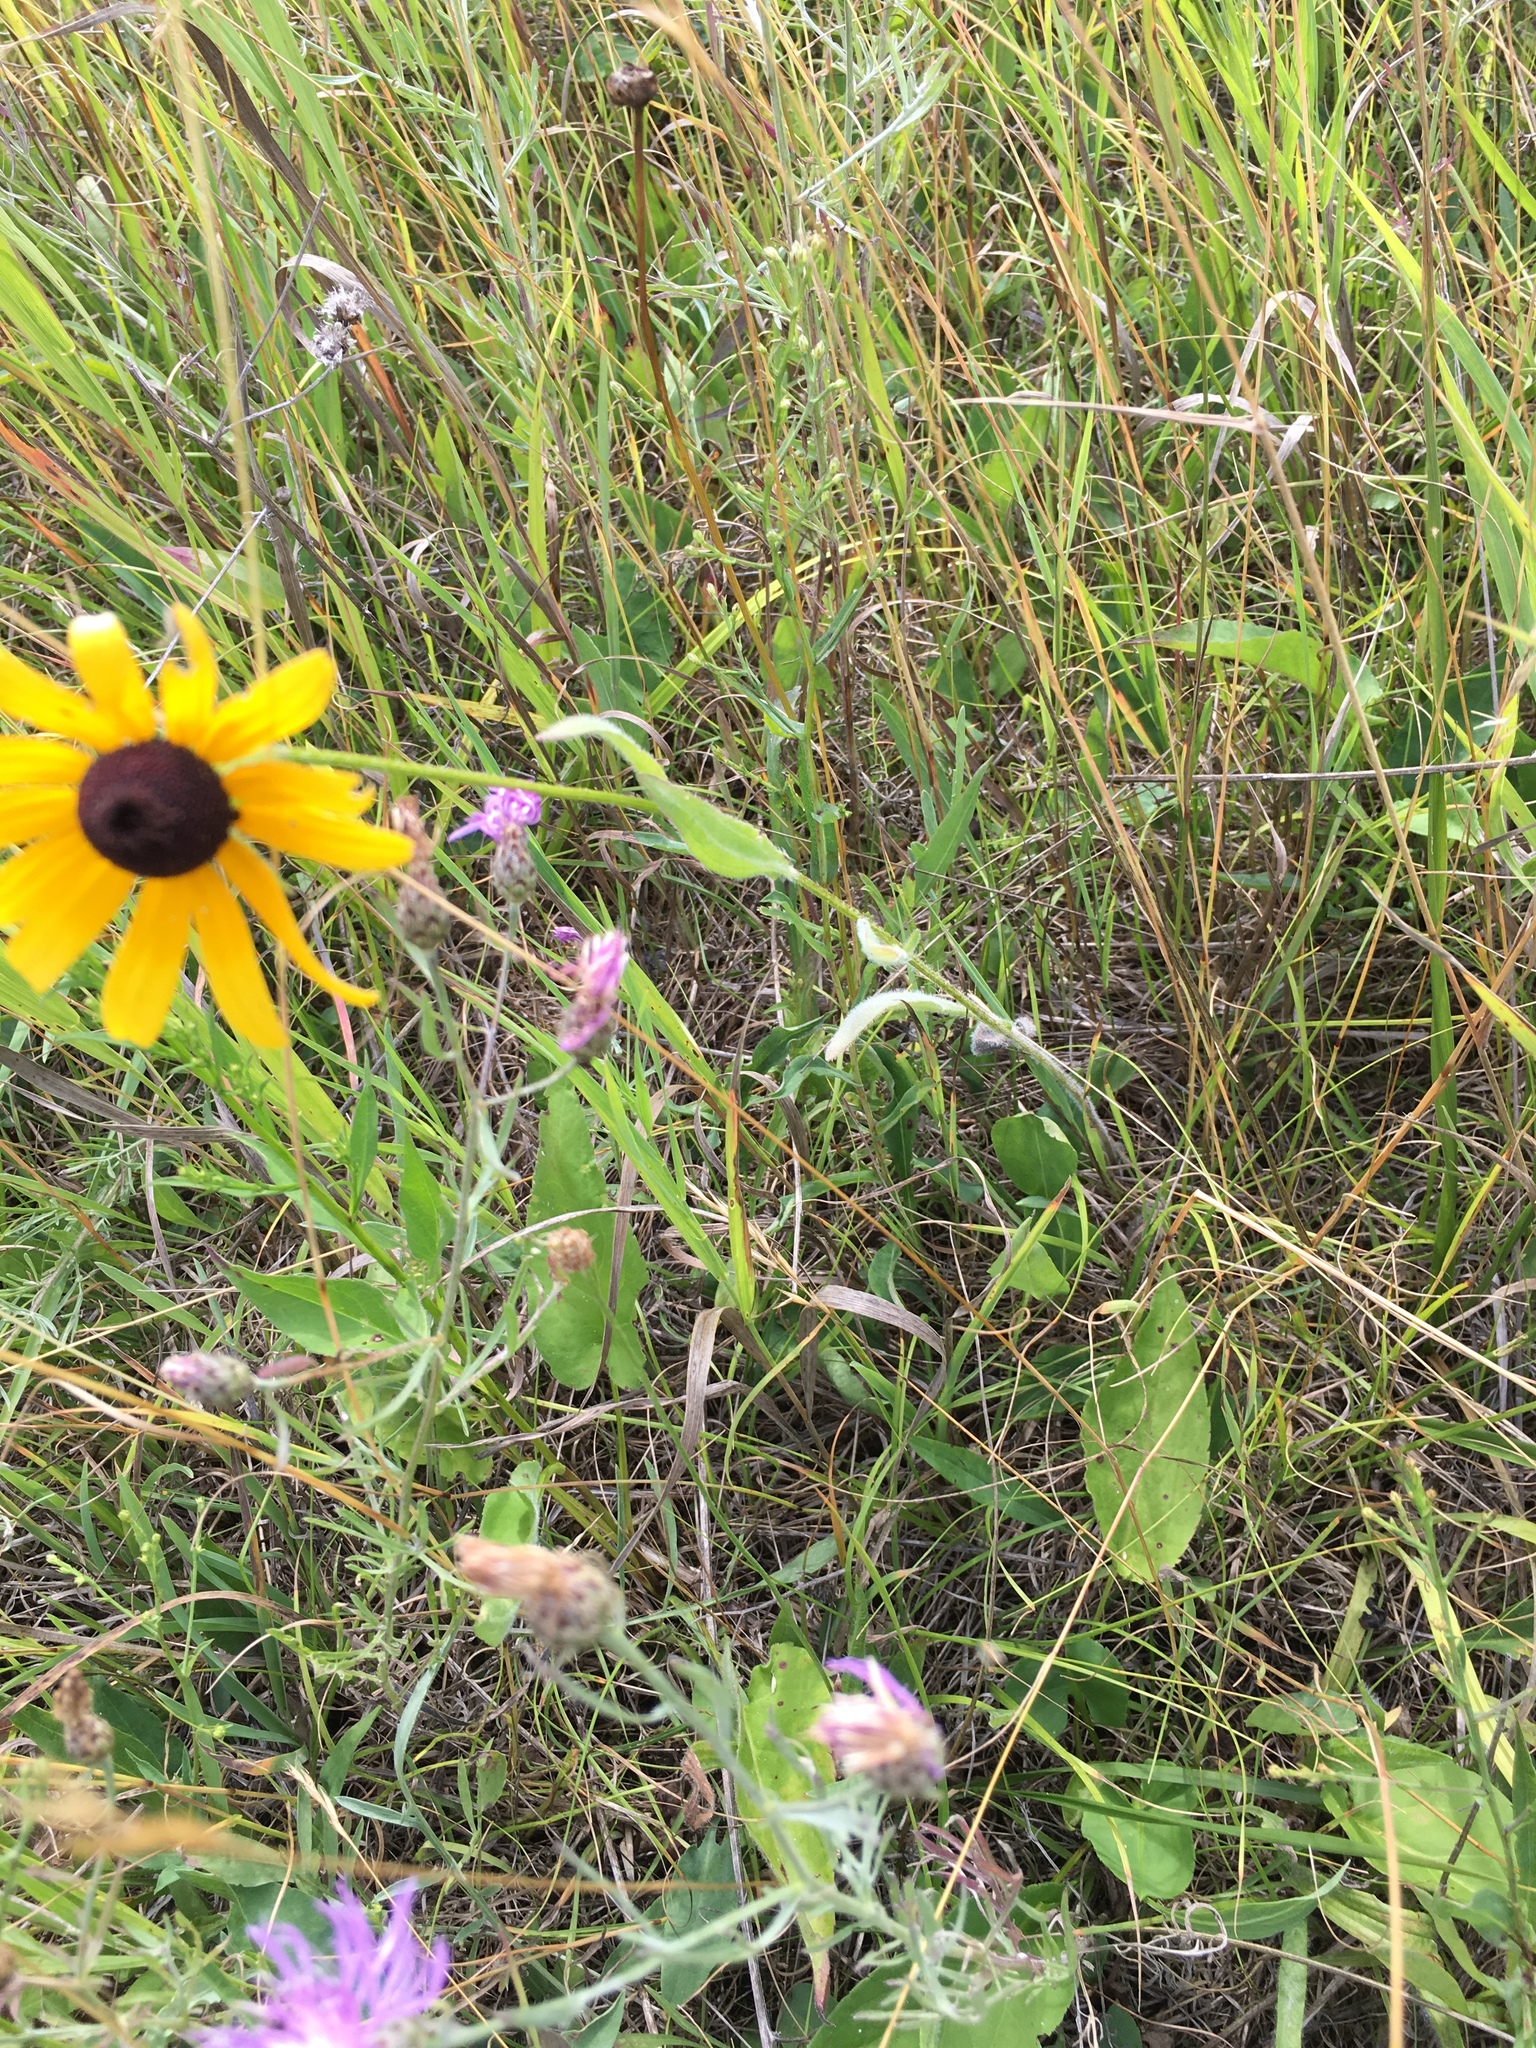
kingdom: Plantae
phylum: Tracheophyta
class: Magnoliopsida
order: Asterales
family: Asteraceae
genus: Rudbeckia
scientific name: Rudbeckia hirta
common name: Black-eyed-susan
